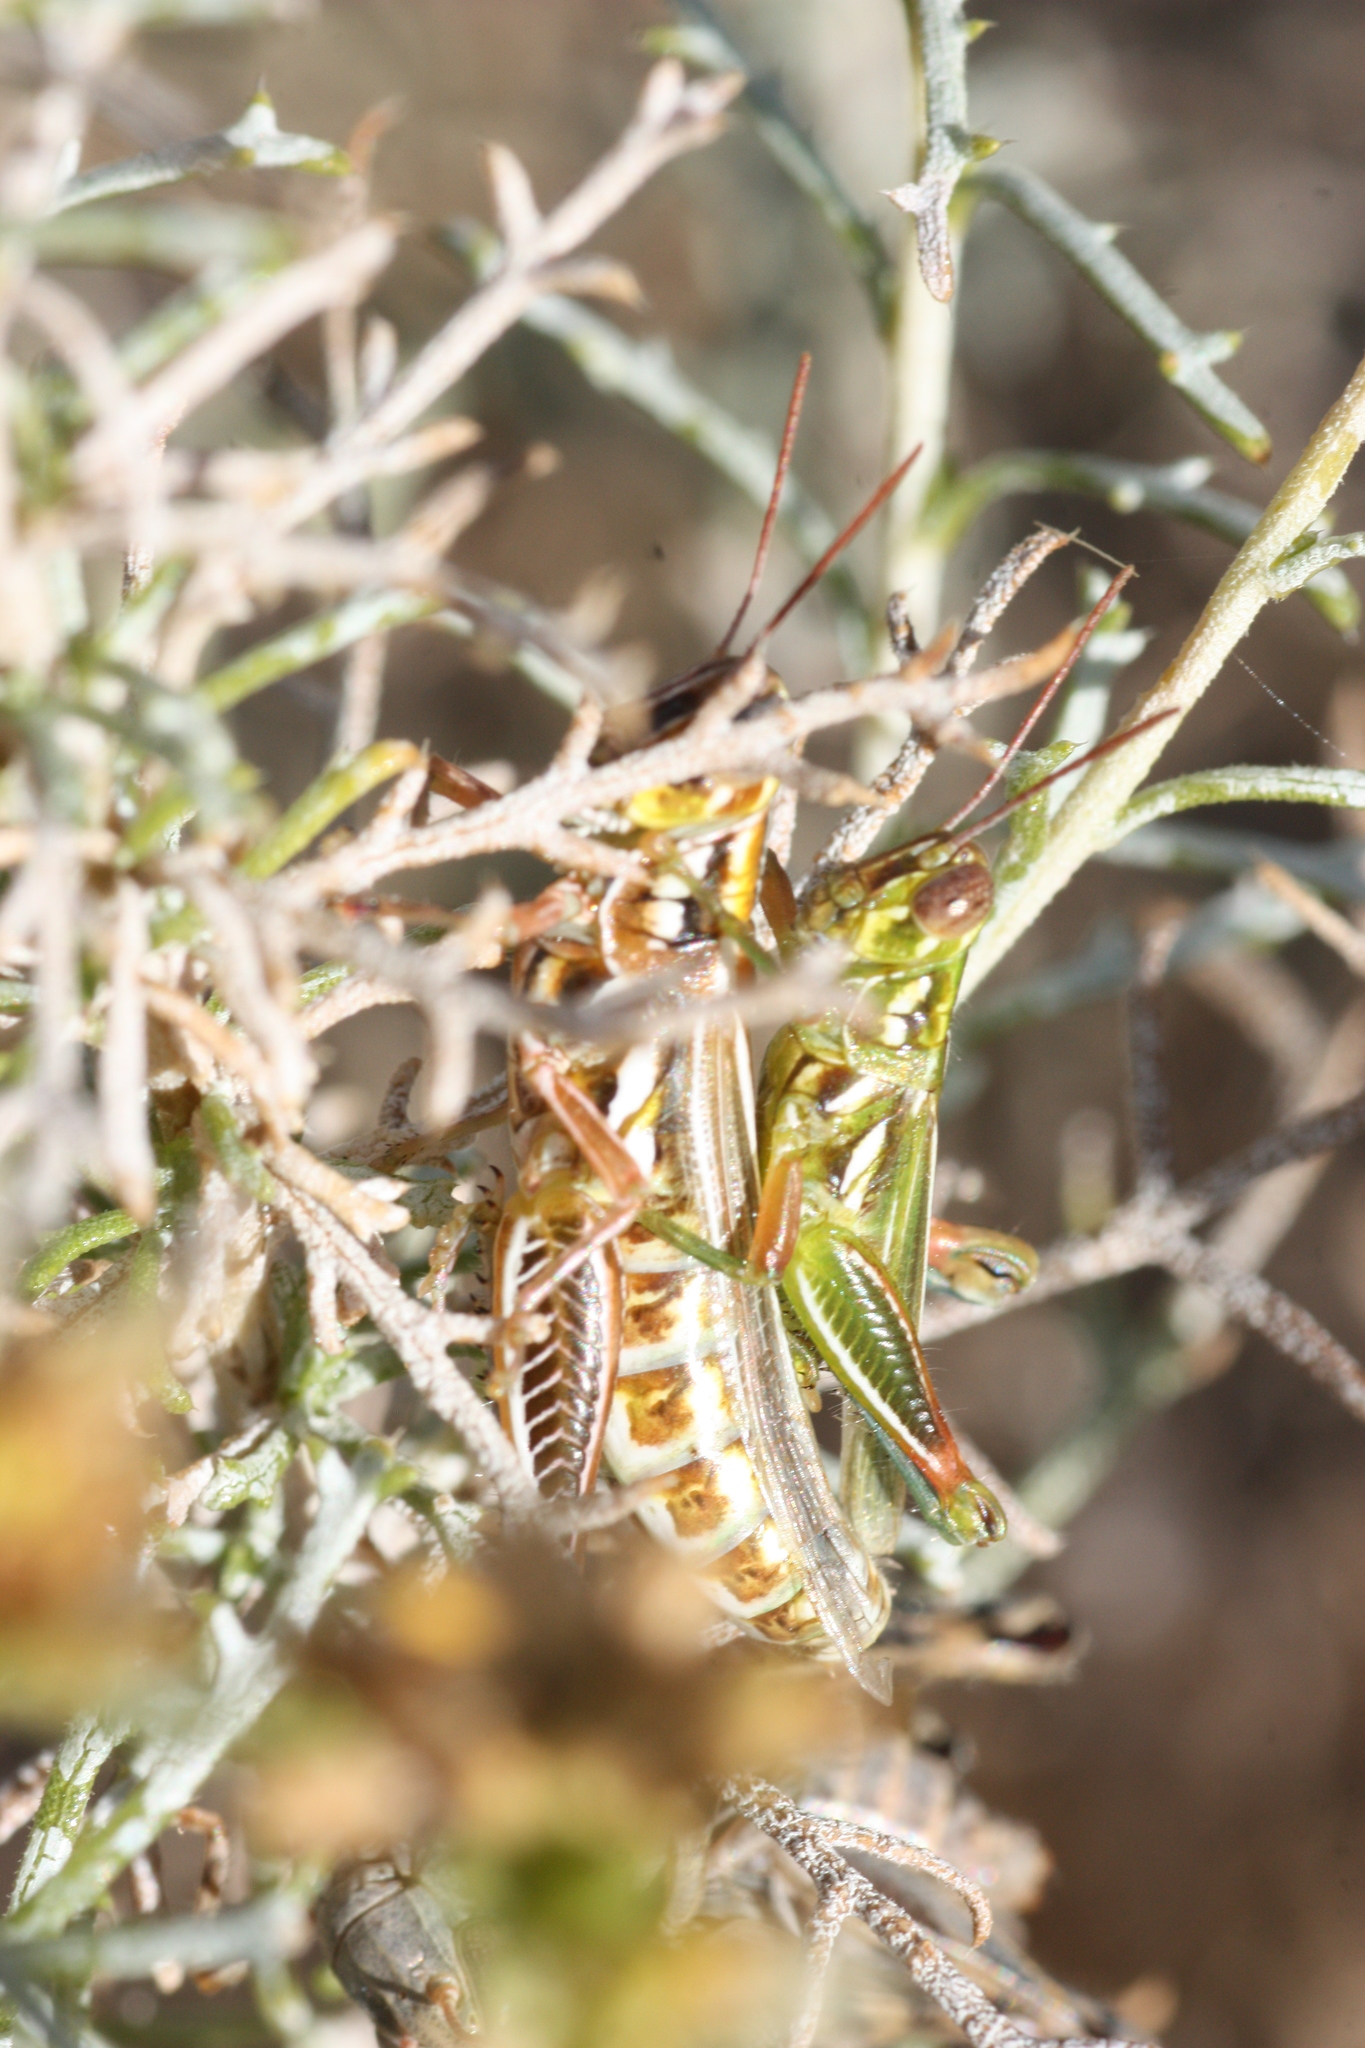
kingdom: Animalia
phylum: Arthropoda
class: Insecta
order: Orthoptera
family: Acrididae
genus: Hesperotettix
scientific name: Hesperotettix viridis
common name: Meadow purple-striped grasshopper
